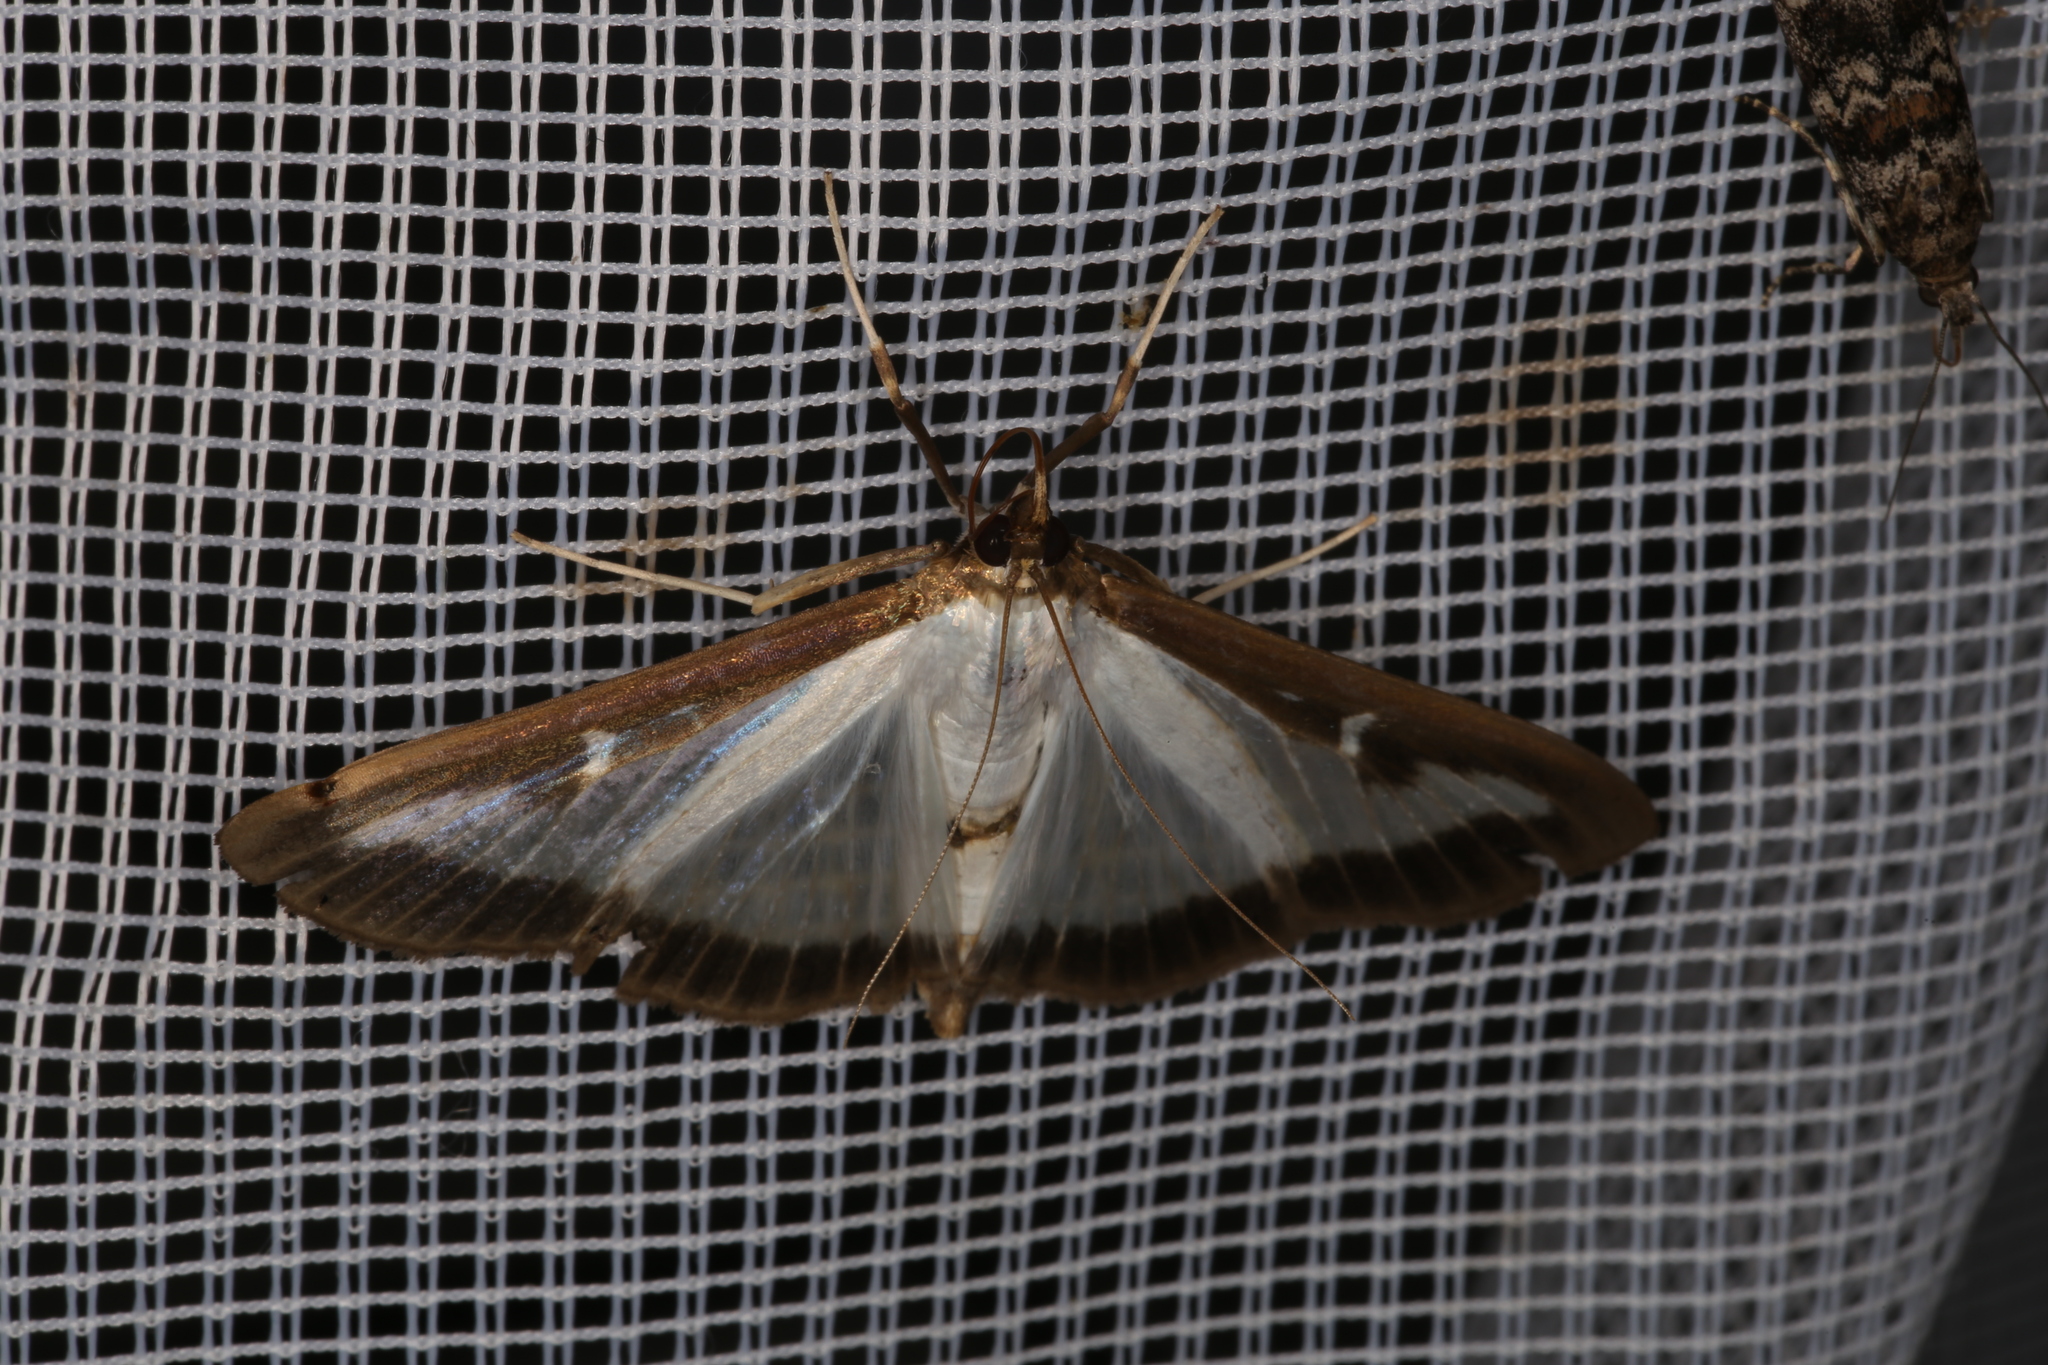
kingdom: Animalia
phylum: Arthropoda
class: Insecta
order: Lepidoptera
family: Crambidae
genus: Cydalima
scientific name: Cydalima perspectalis
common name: Box tree moth
